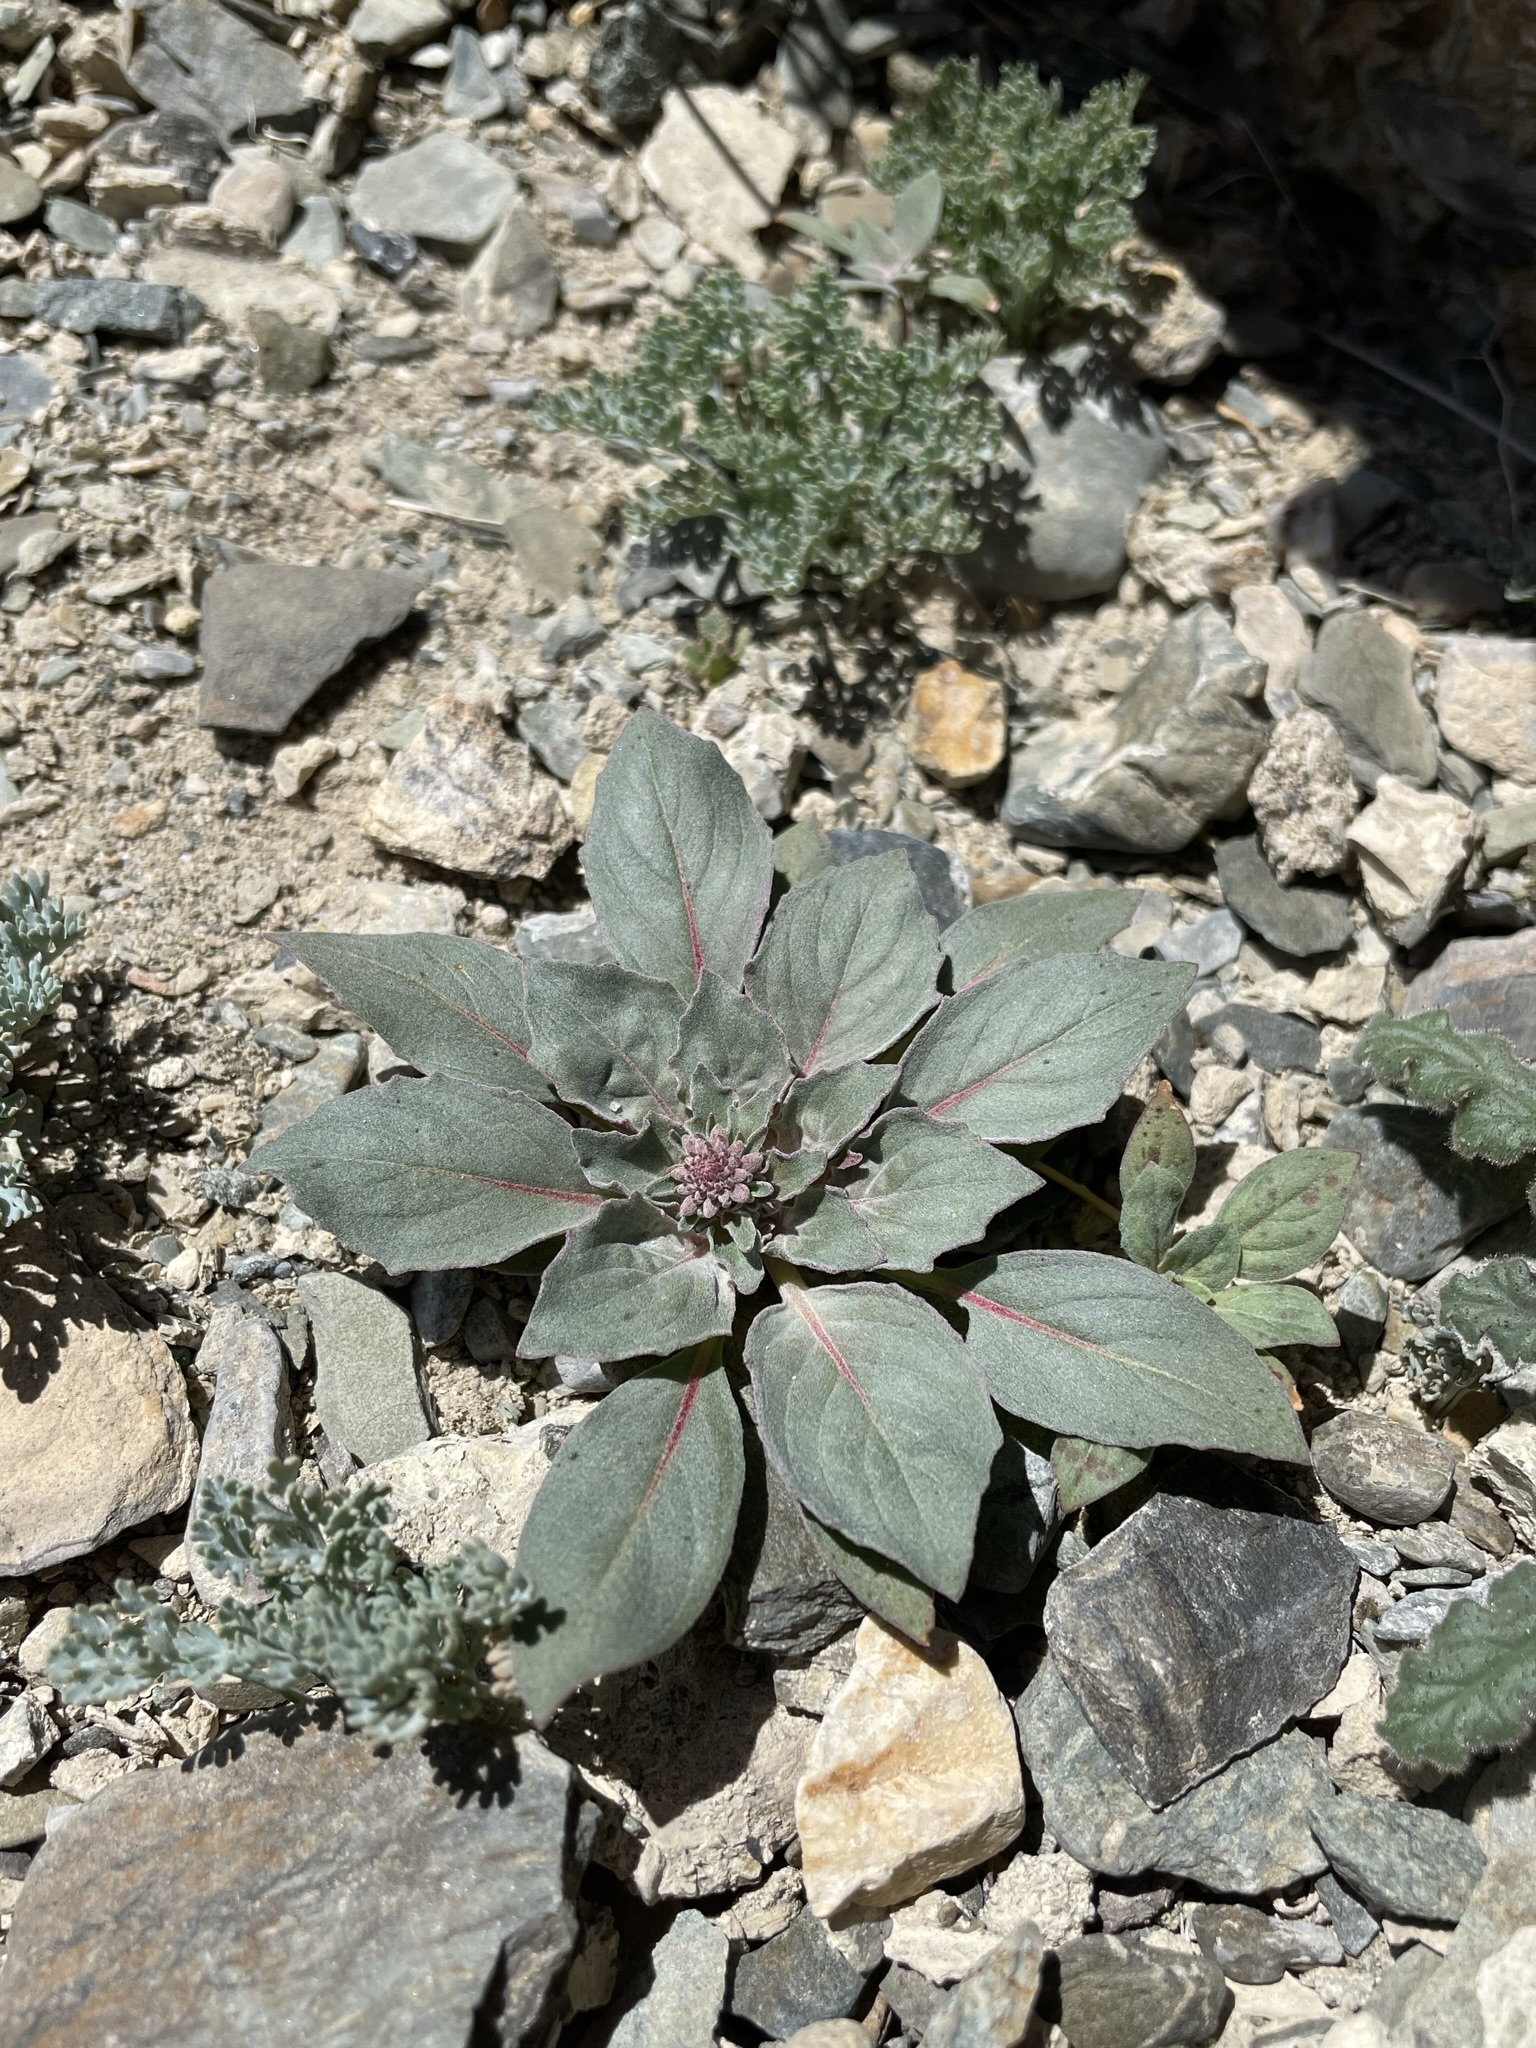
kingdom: Plantae
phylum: Tracheophyta
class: Magnoliopsida
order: Myrtales
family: Onagraceae
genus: Eremothera
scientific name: Eremothera boothii
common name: Booth's evening primrose
